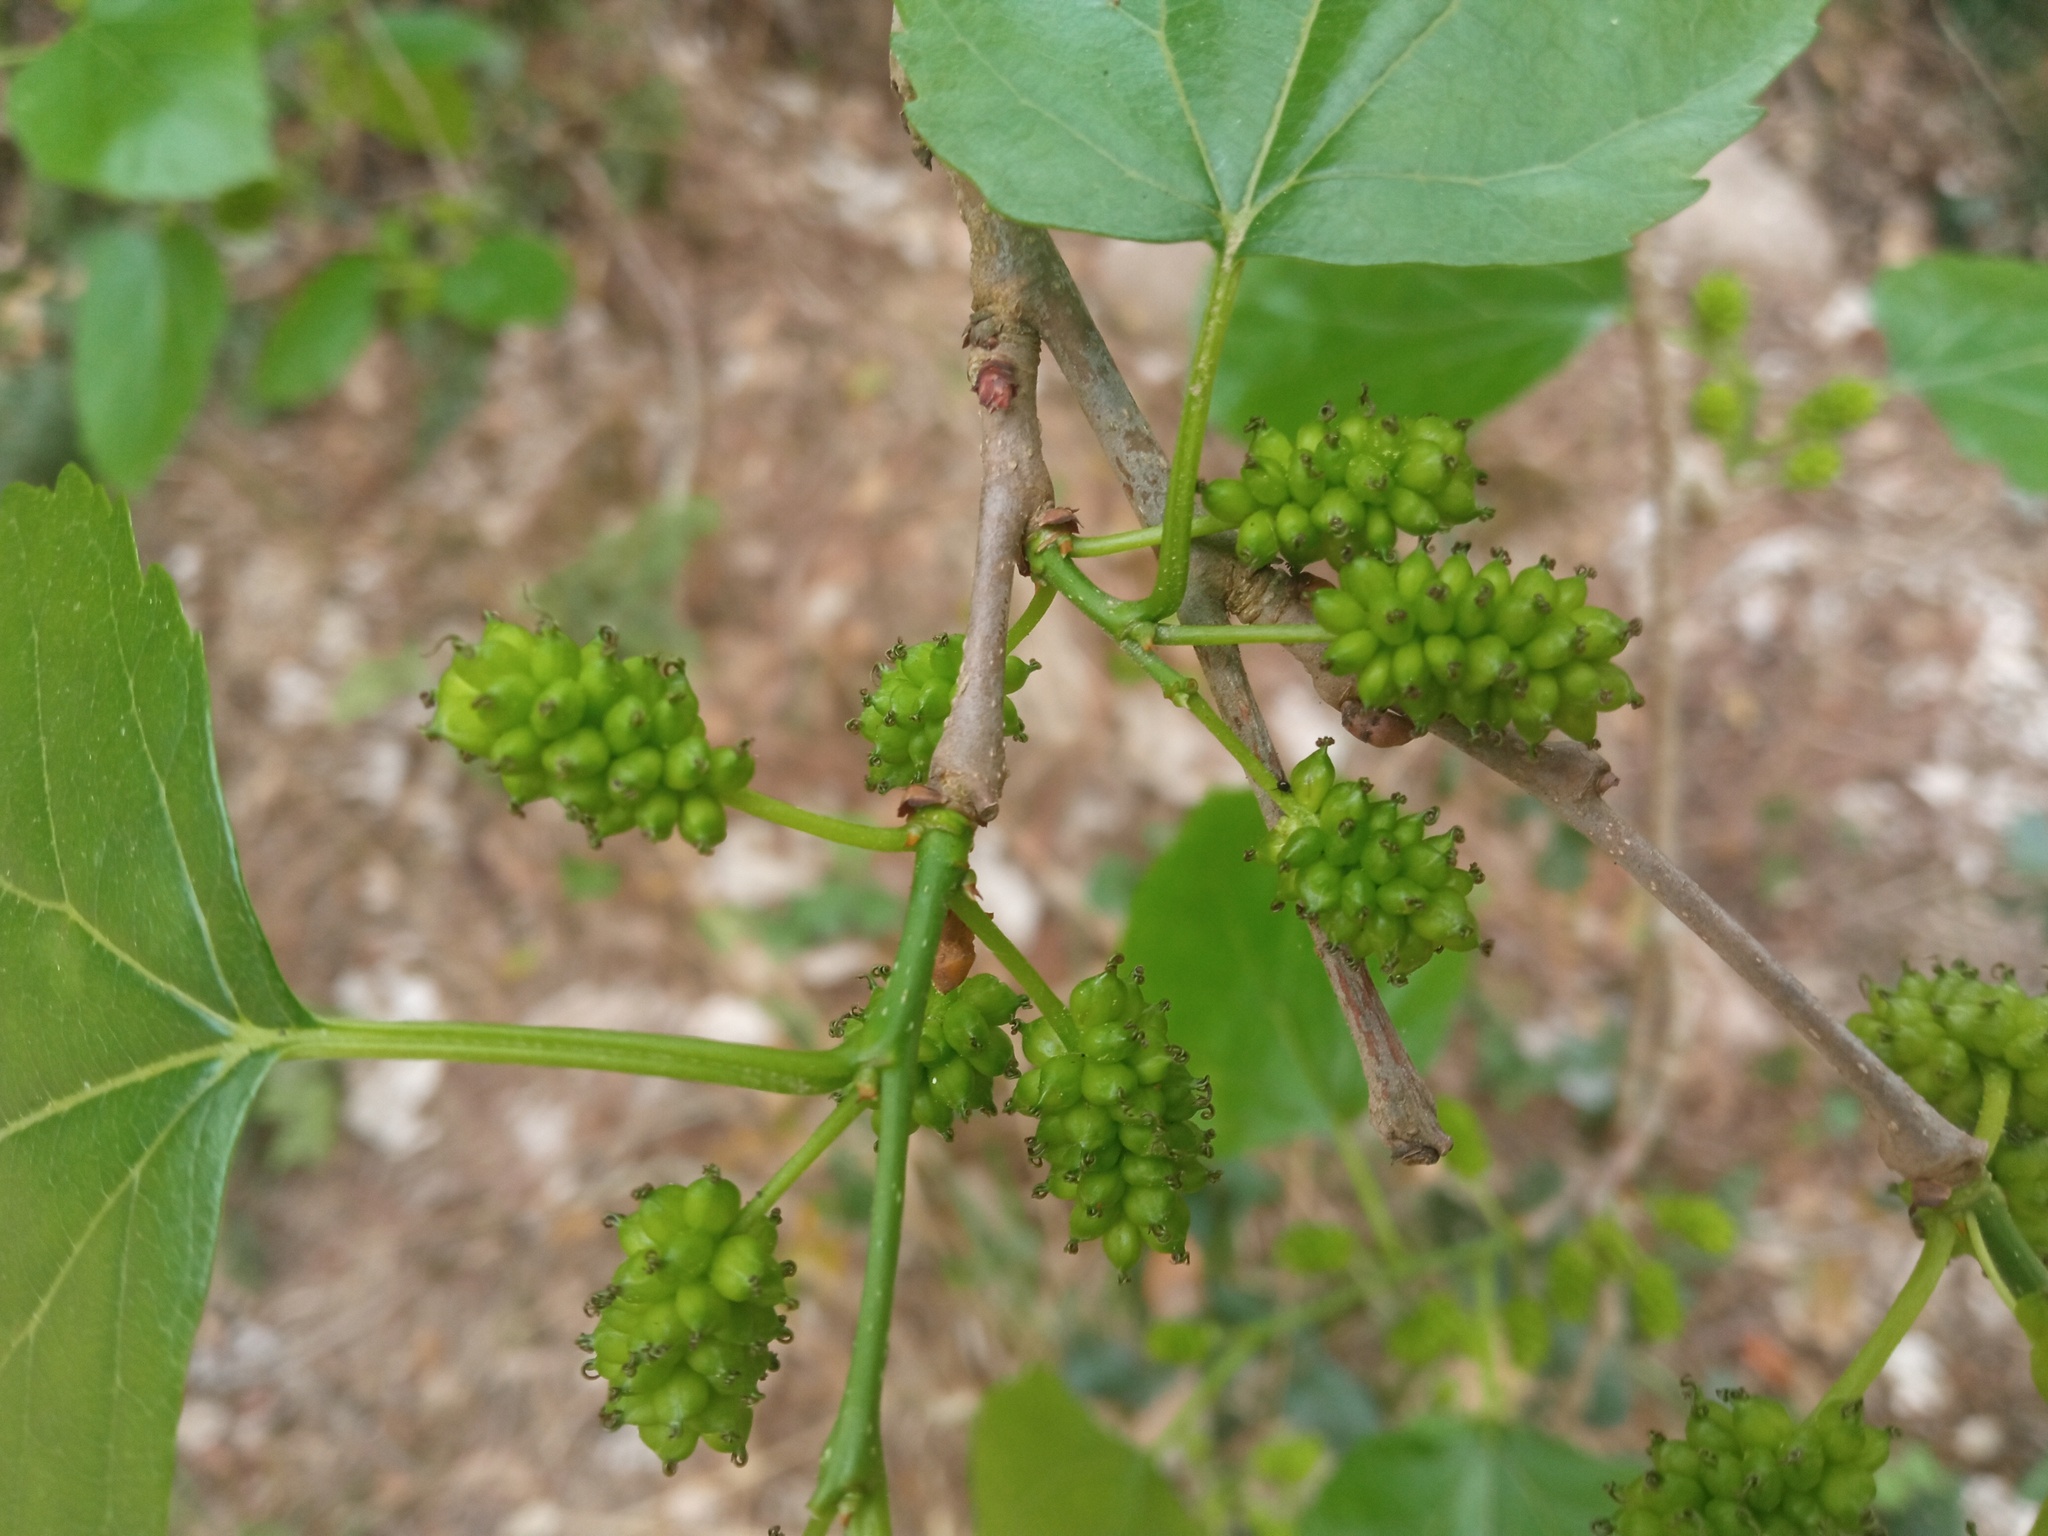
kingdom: Plantae
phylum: Tracheophyta
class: Magnoliopsida
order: Rosales
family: Moraceae
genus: Morus
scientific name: Morus alba
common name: White mulberry
